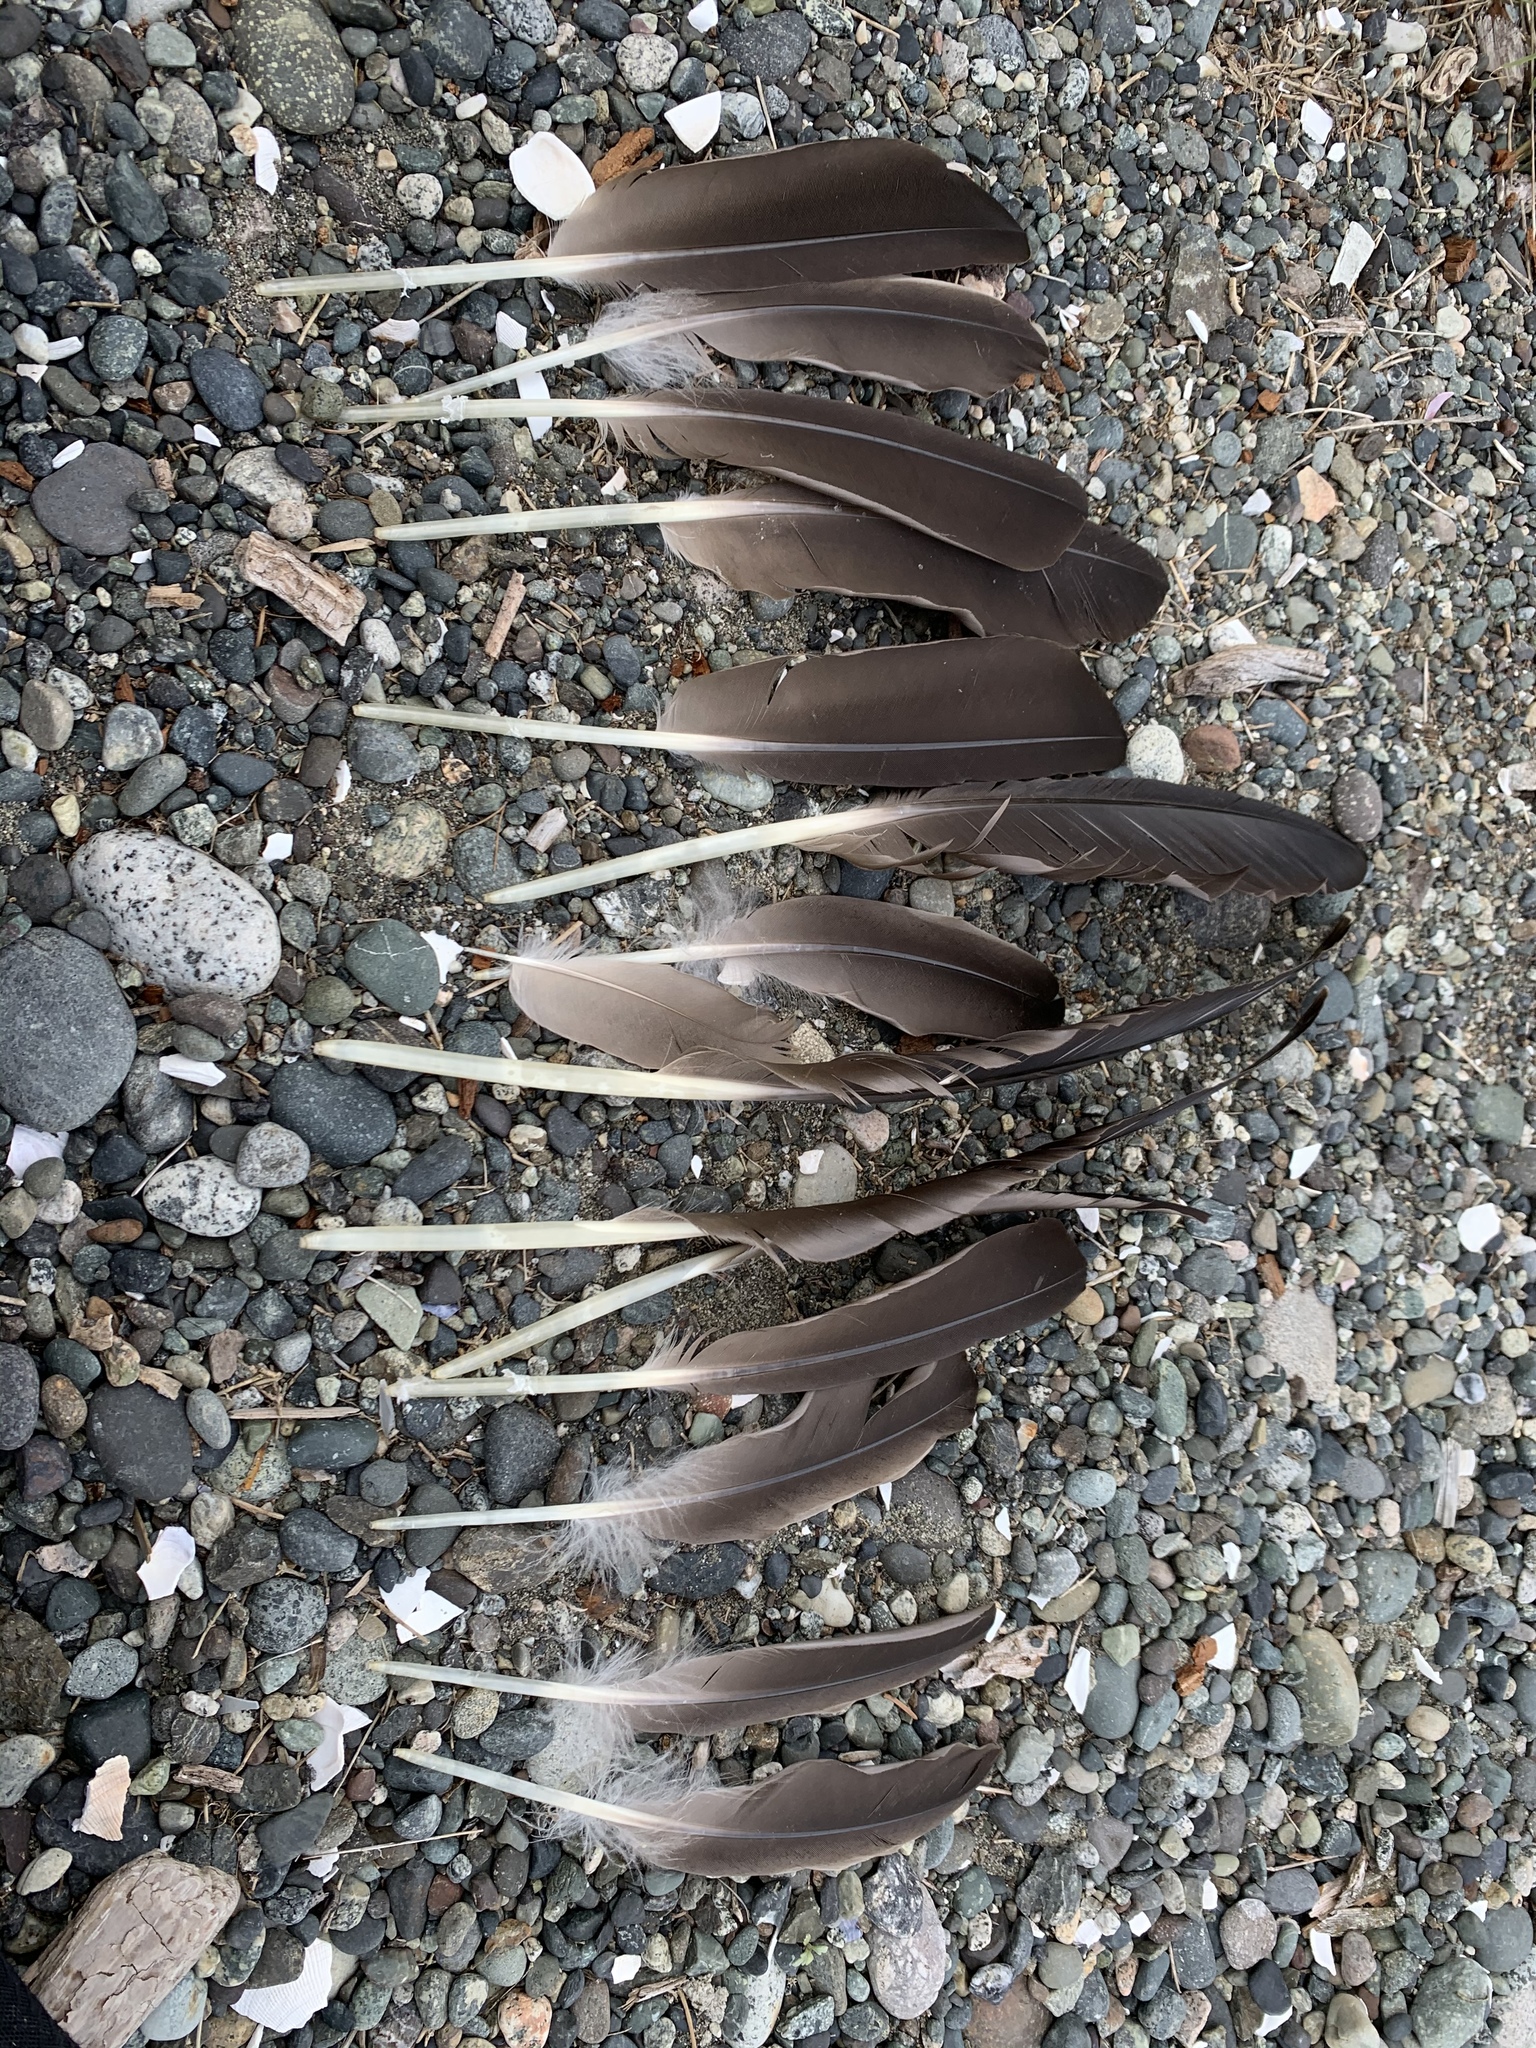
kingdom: Animalia
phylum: Chordata
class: Aves
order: Anseriformes
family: Anatidae
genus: Branta
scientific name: Branta canadensis
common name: Canada goose
